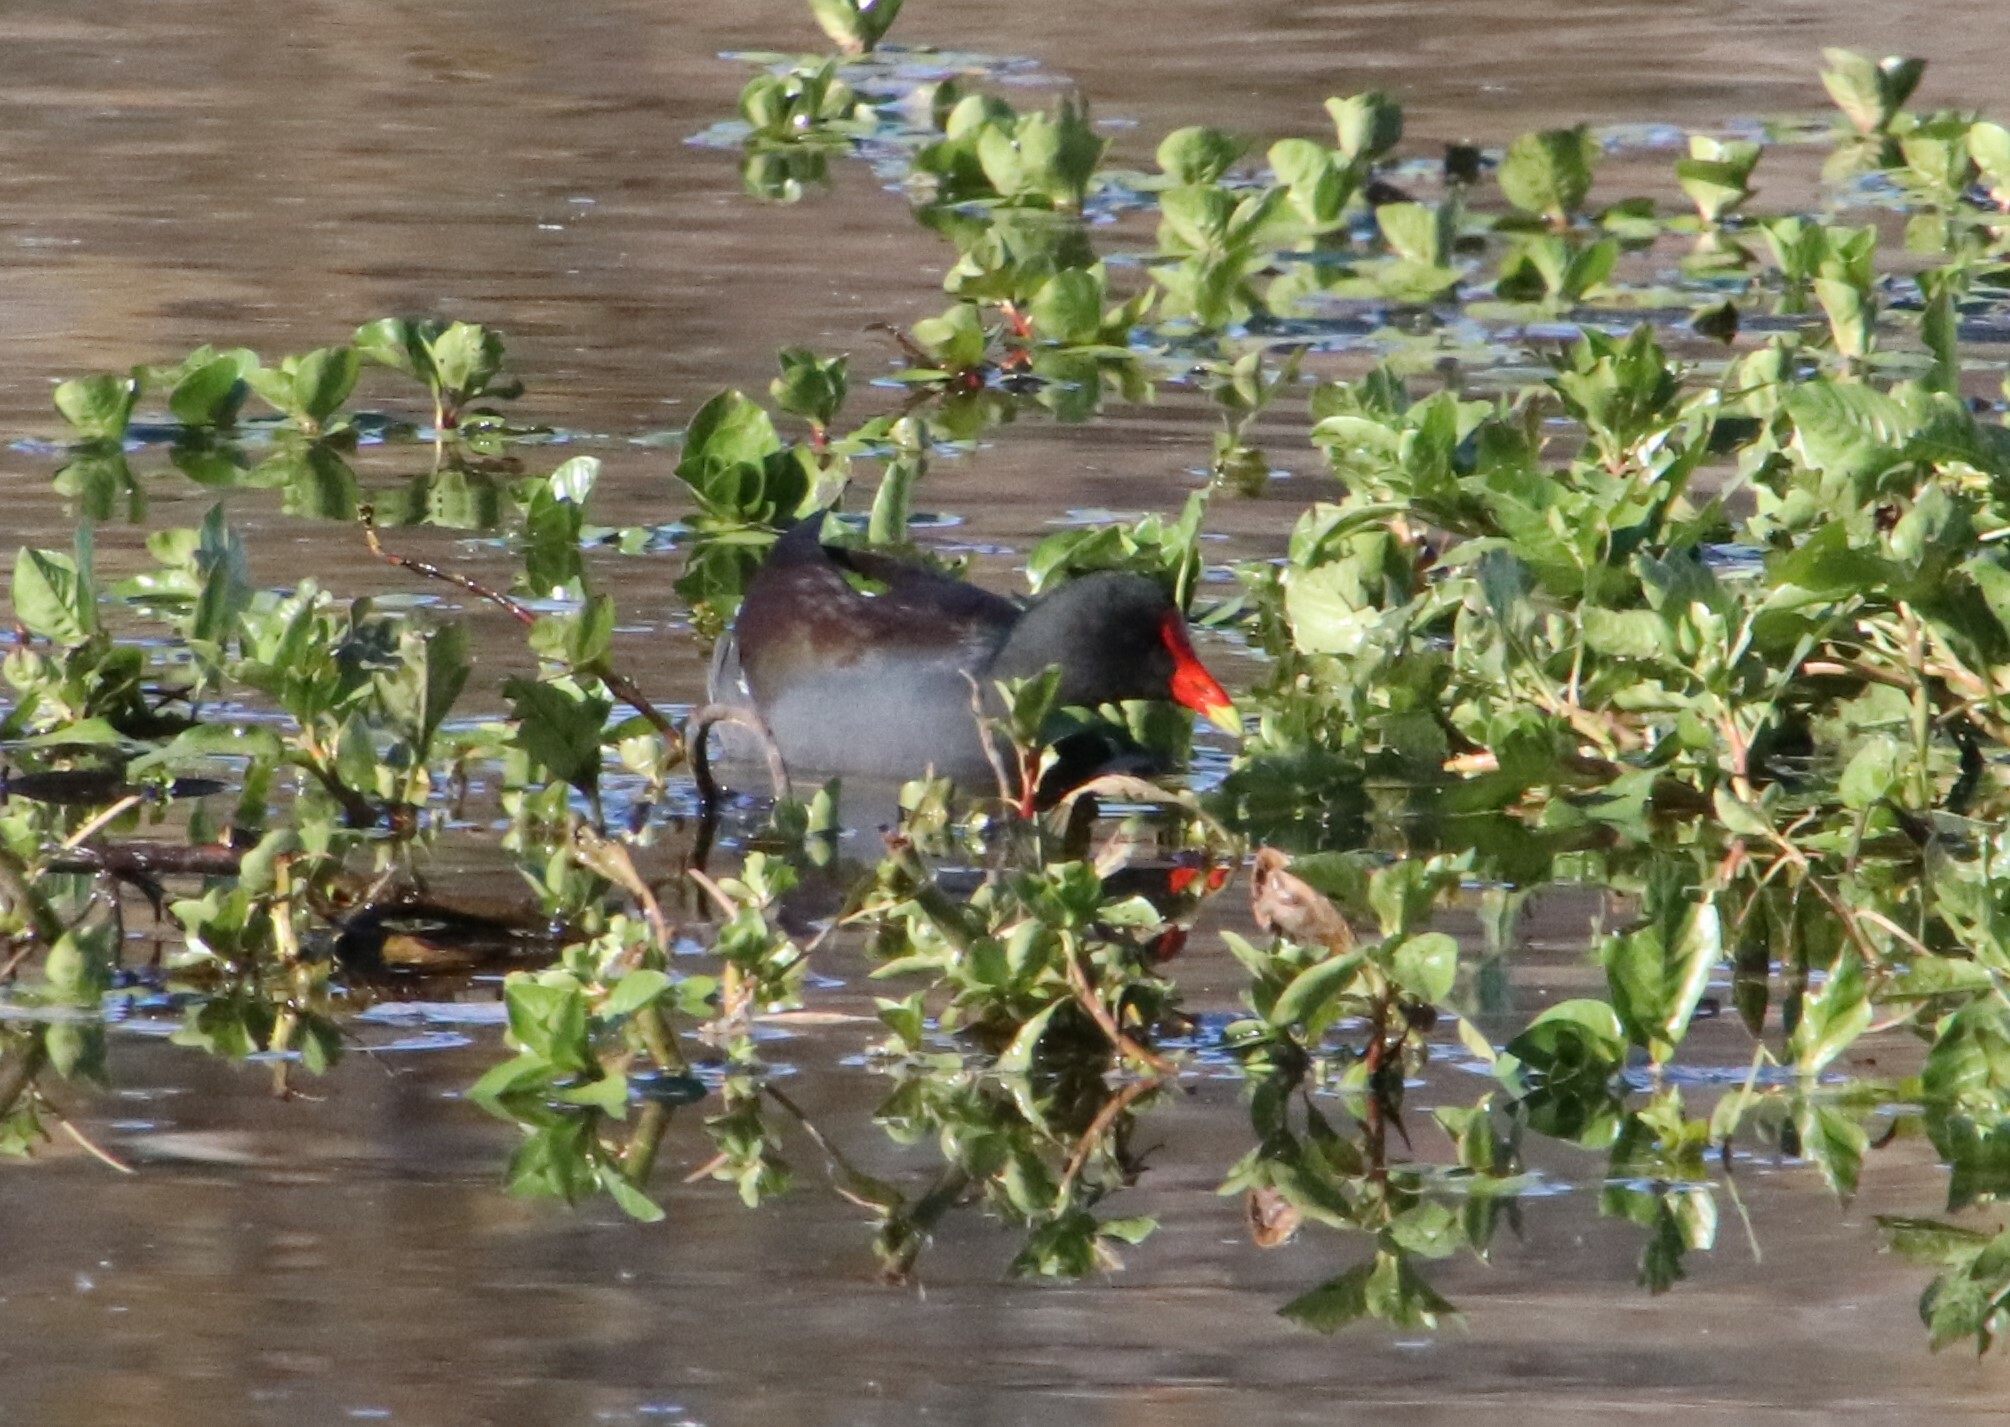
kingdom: Animalia
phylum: Chordata
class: Aves
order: Gruiformes
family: Rallidae
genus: Gallinula
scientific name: Gallinula chloropus
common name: Common moorhen
